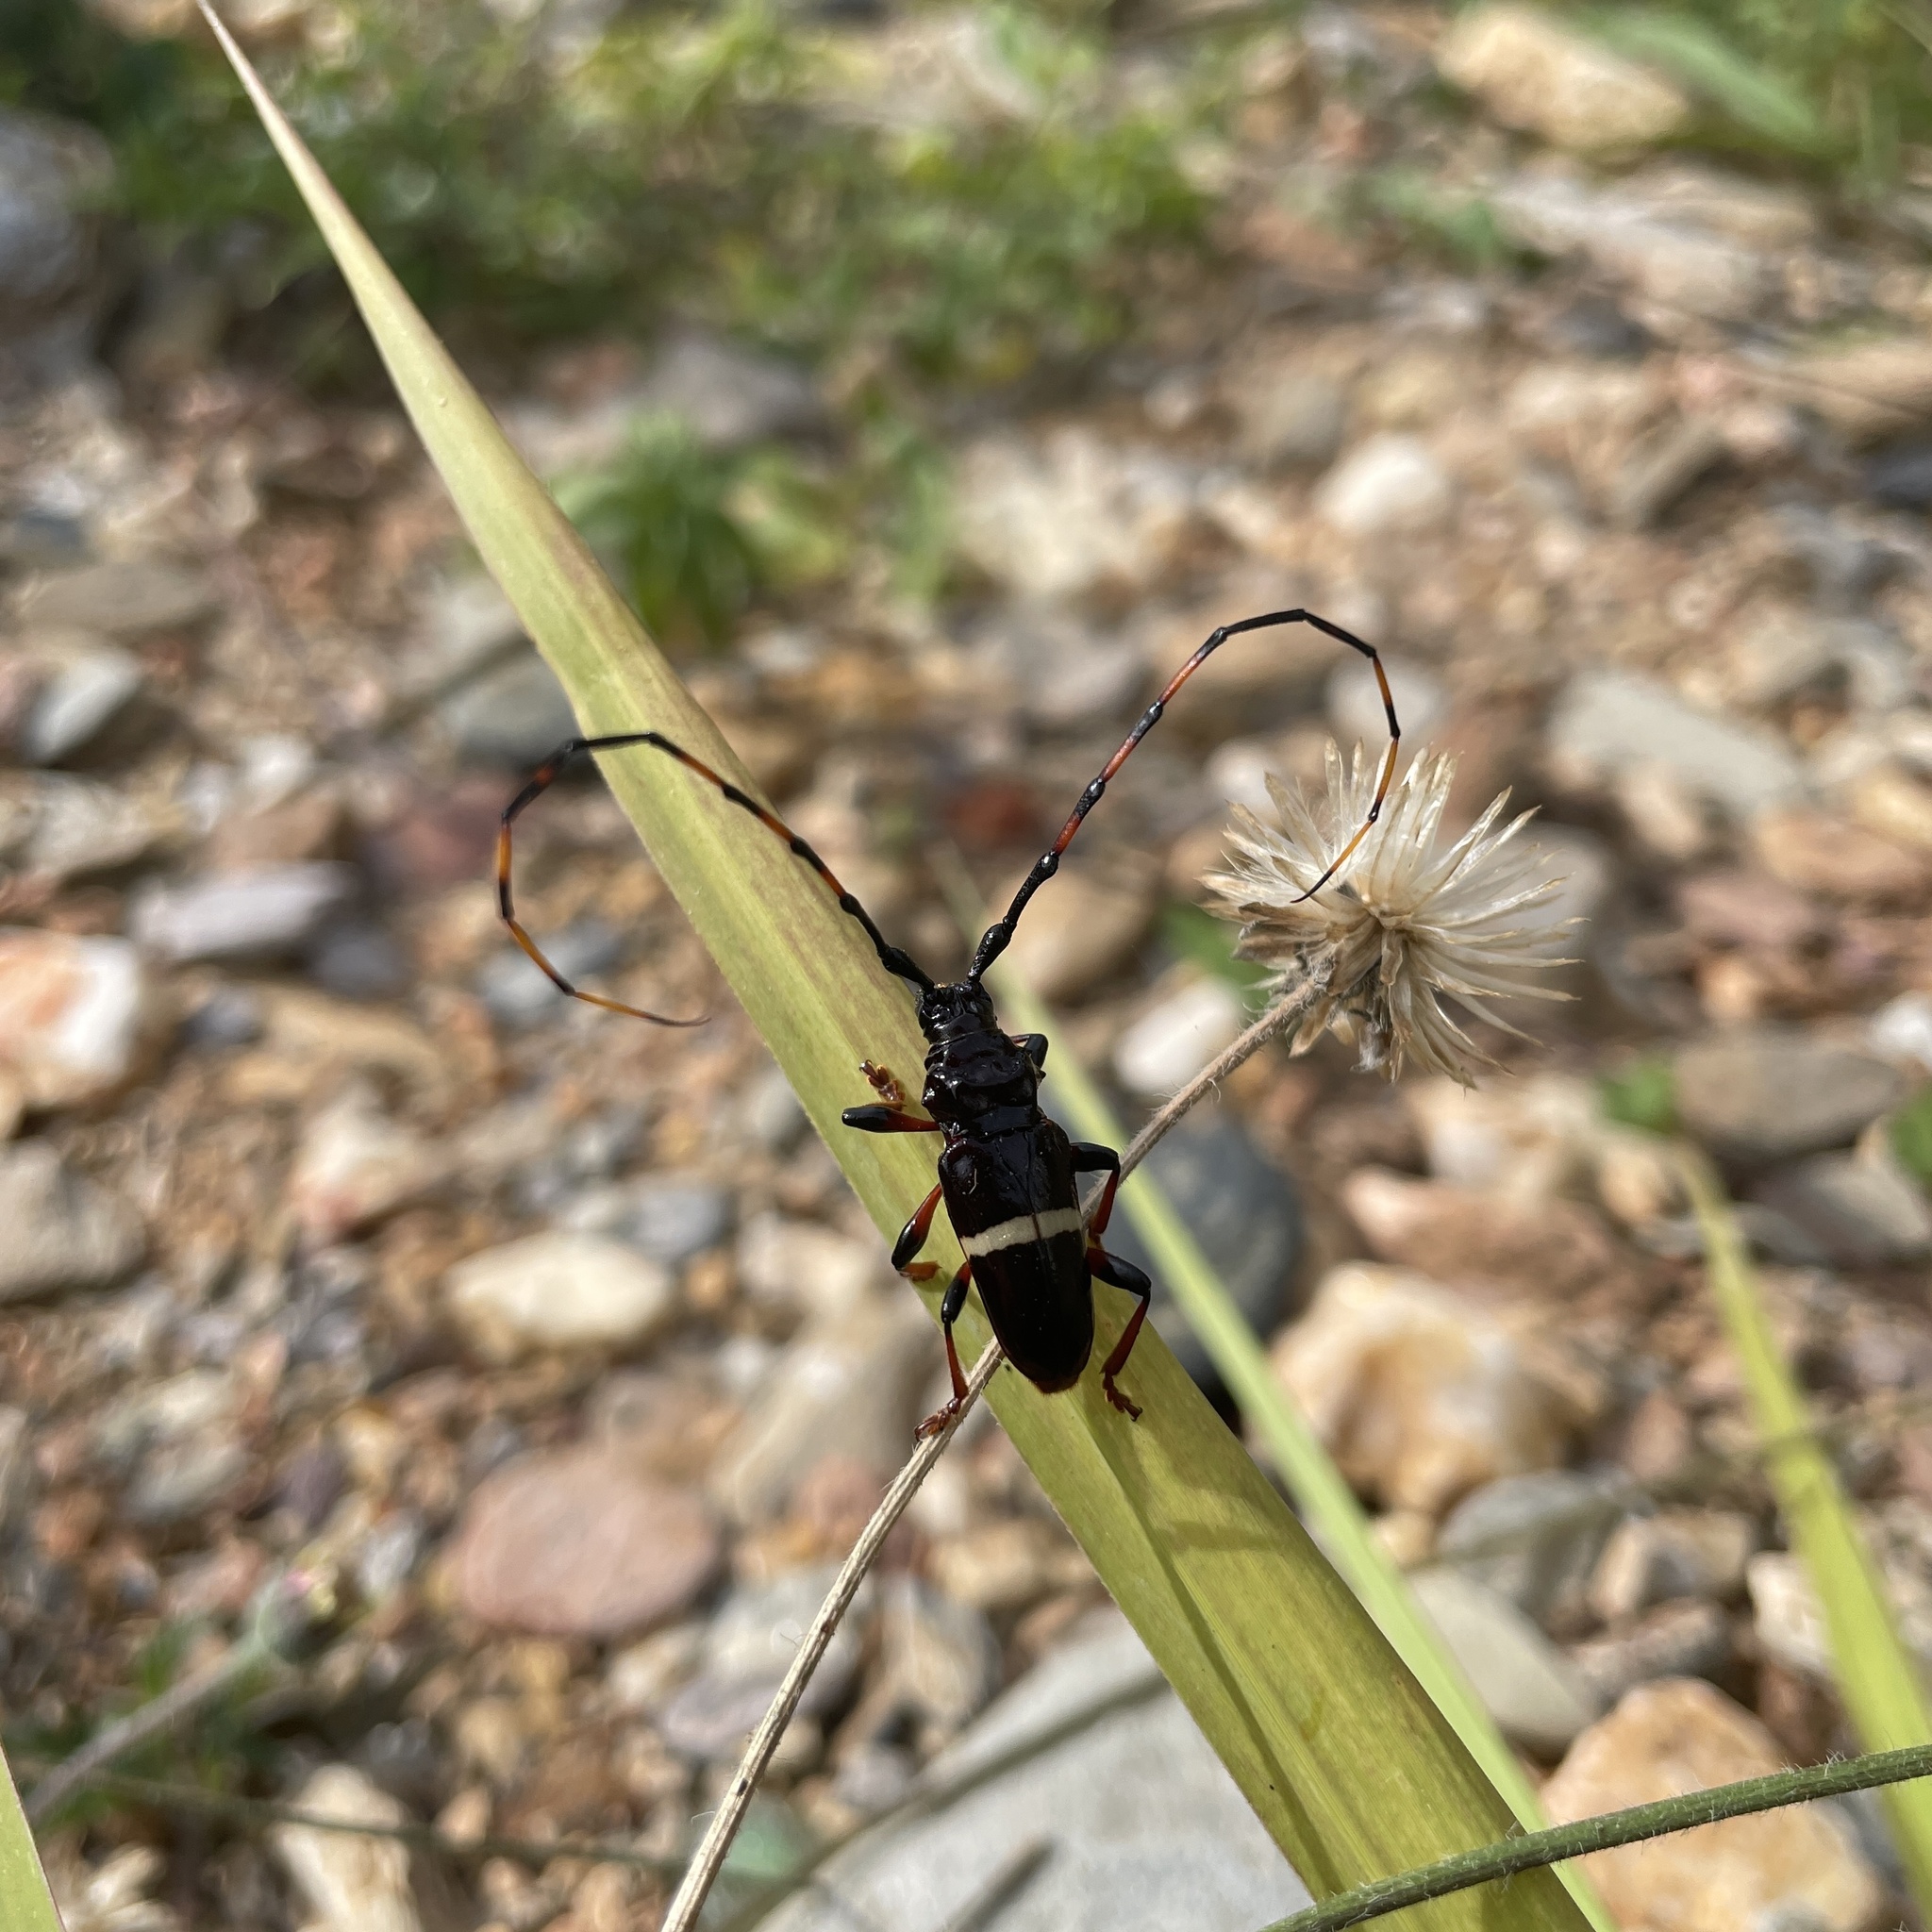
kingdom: Animalia
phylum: Arthropoda
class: Insecta
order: Coleoptera
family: Cerambycidae
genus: Trachyderes
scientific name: Trachyderes succinctus
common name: Mango longhorn
